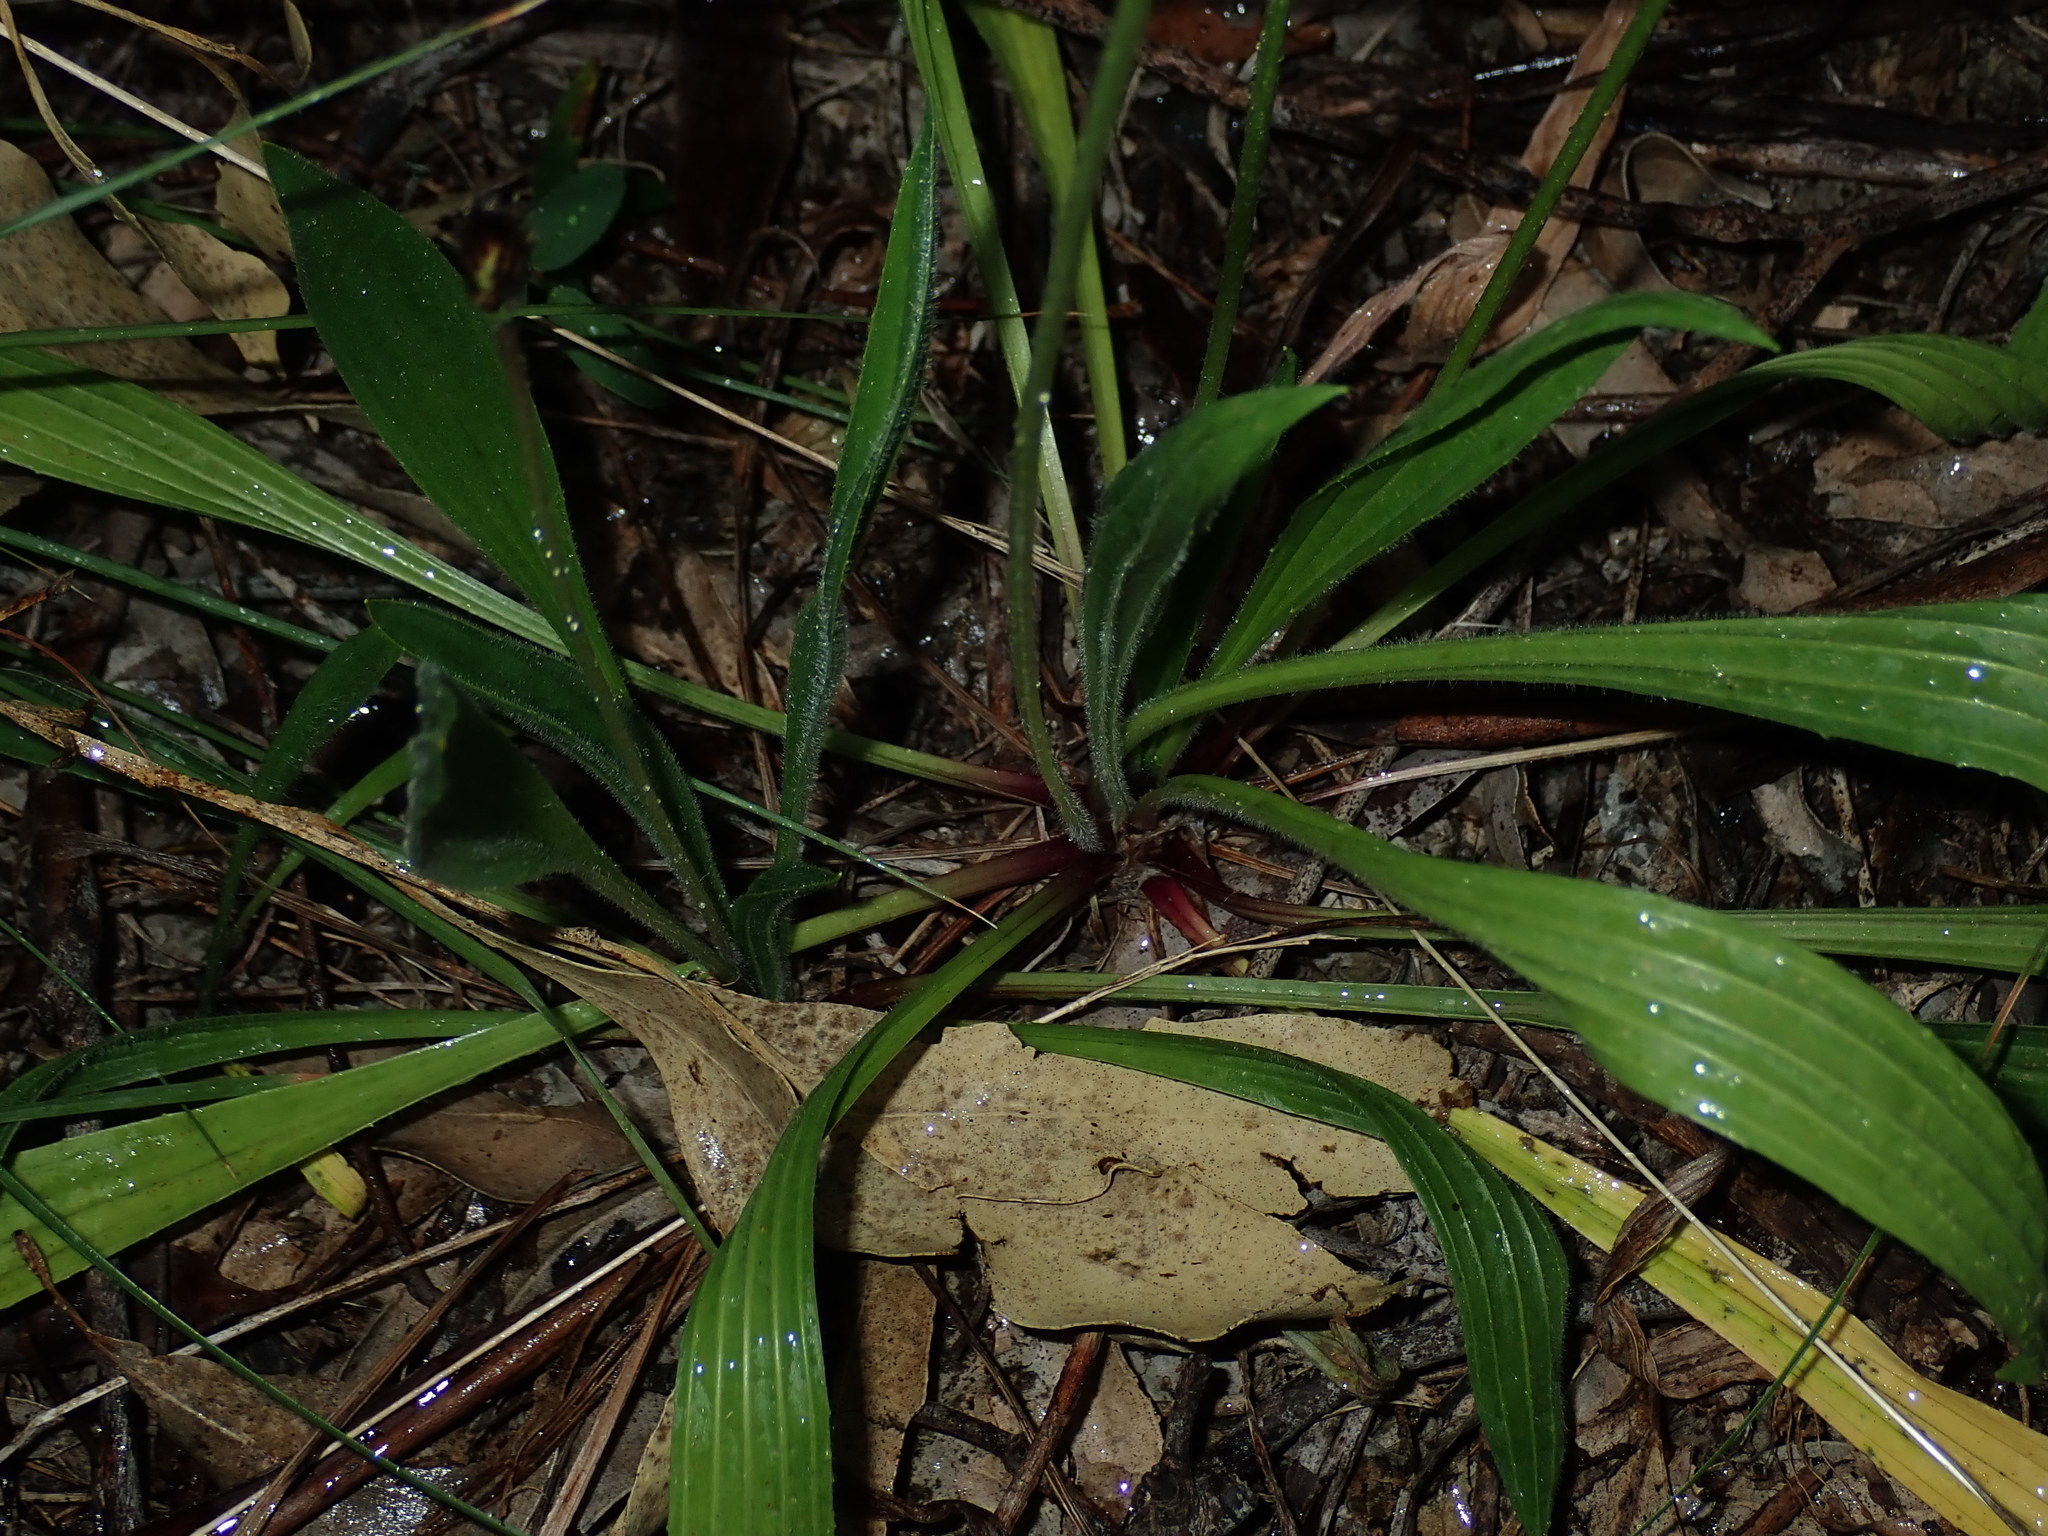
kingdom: Plantae
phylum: Tracheophyta
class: Magnoliopsida
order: Lamiales
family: Plantaginaceae
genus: Plantago
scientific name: Plantago lanceolata
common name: Ribwort plantain
